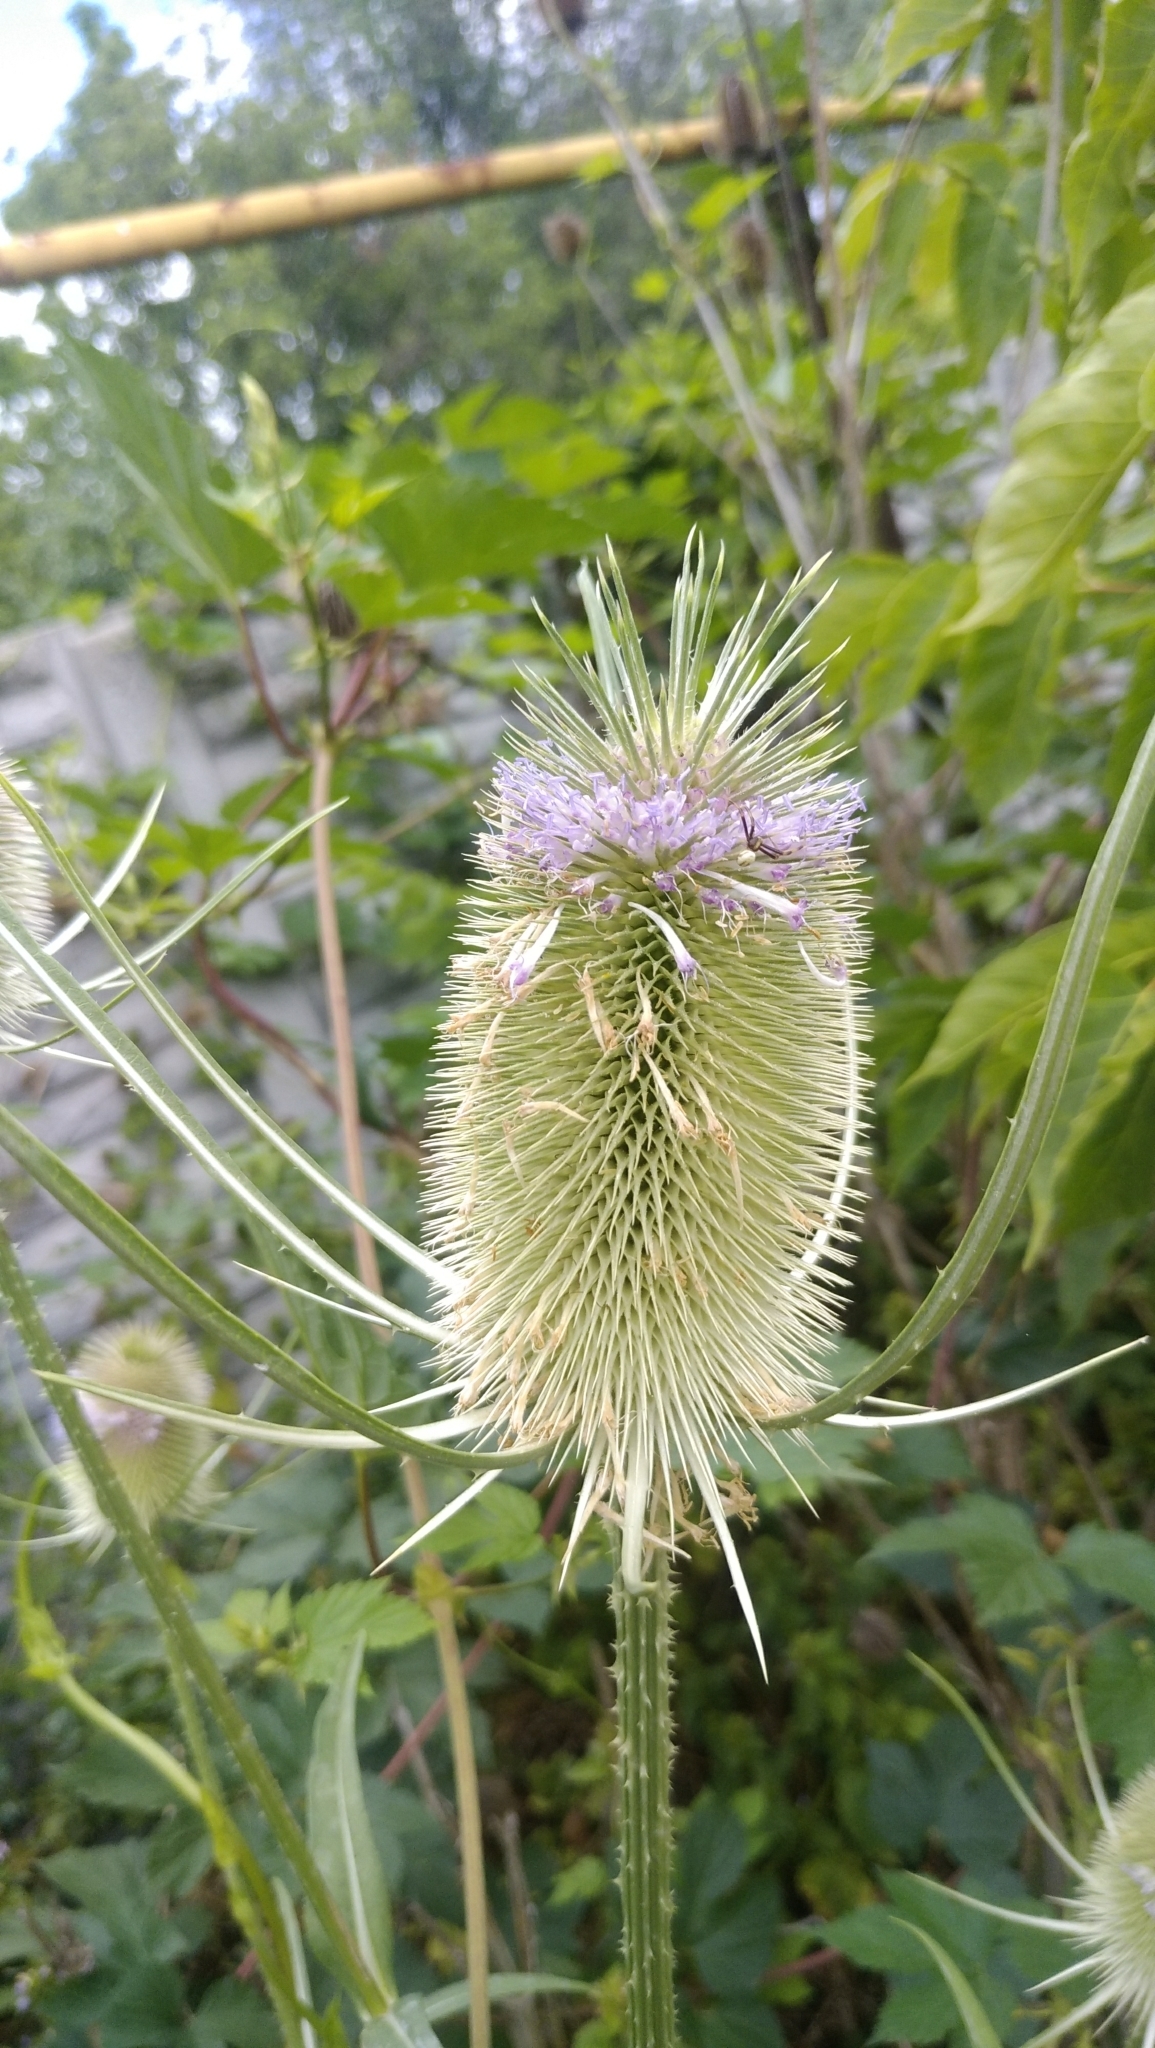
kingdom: Plantae
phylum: Tracheophyta
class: Magnoliopsida
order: Dipsacales
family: Caprifoliaceae
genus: Dipsacus
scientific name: Dipsacus fullonum
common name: Teasel
